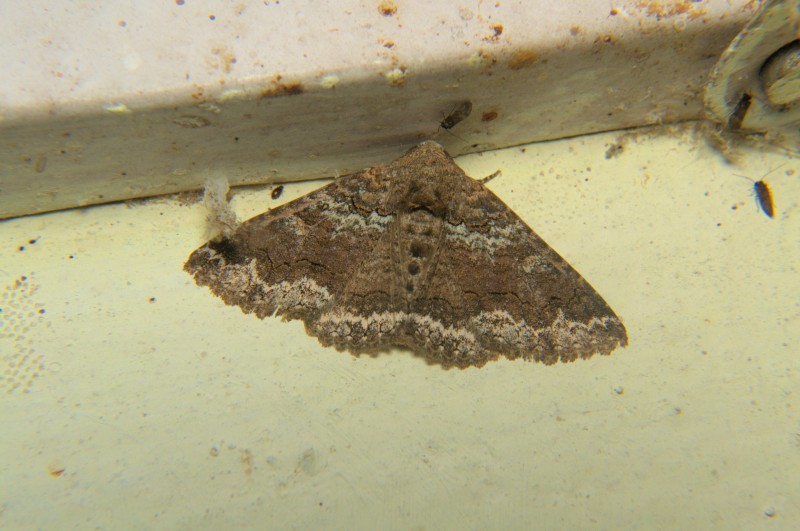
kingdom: Animalia
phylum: Arthropoda
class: Insecta
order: Lepidoptera
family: Erebidae
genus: Pericyma
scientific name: Pericyma umbrina
